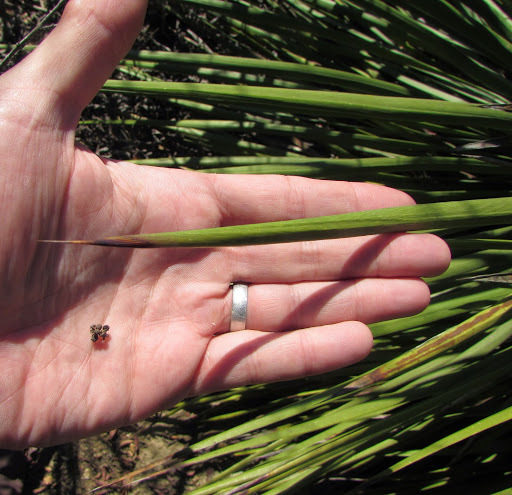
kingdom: Plantae
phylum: Tracheophyta
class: Liliopsida
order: Asparagales
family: Asparagaceae
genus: Hesperoyucca
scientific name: Hesperoyucca whipplei
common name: Our lord's-candle
